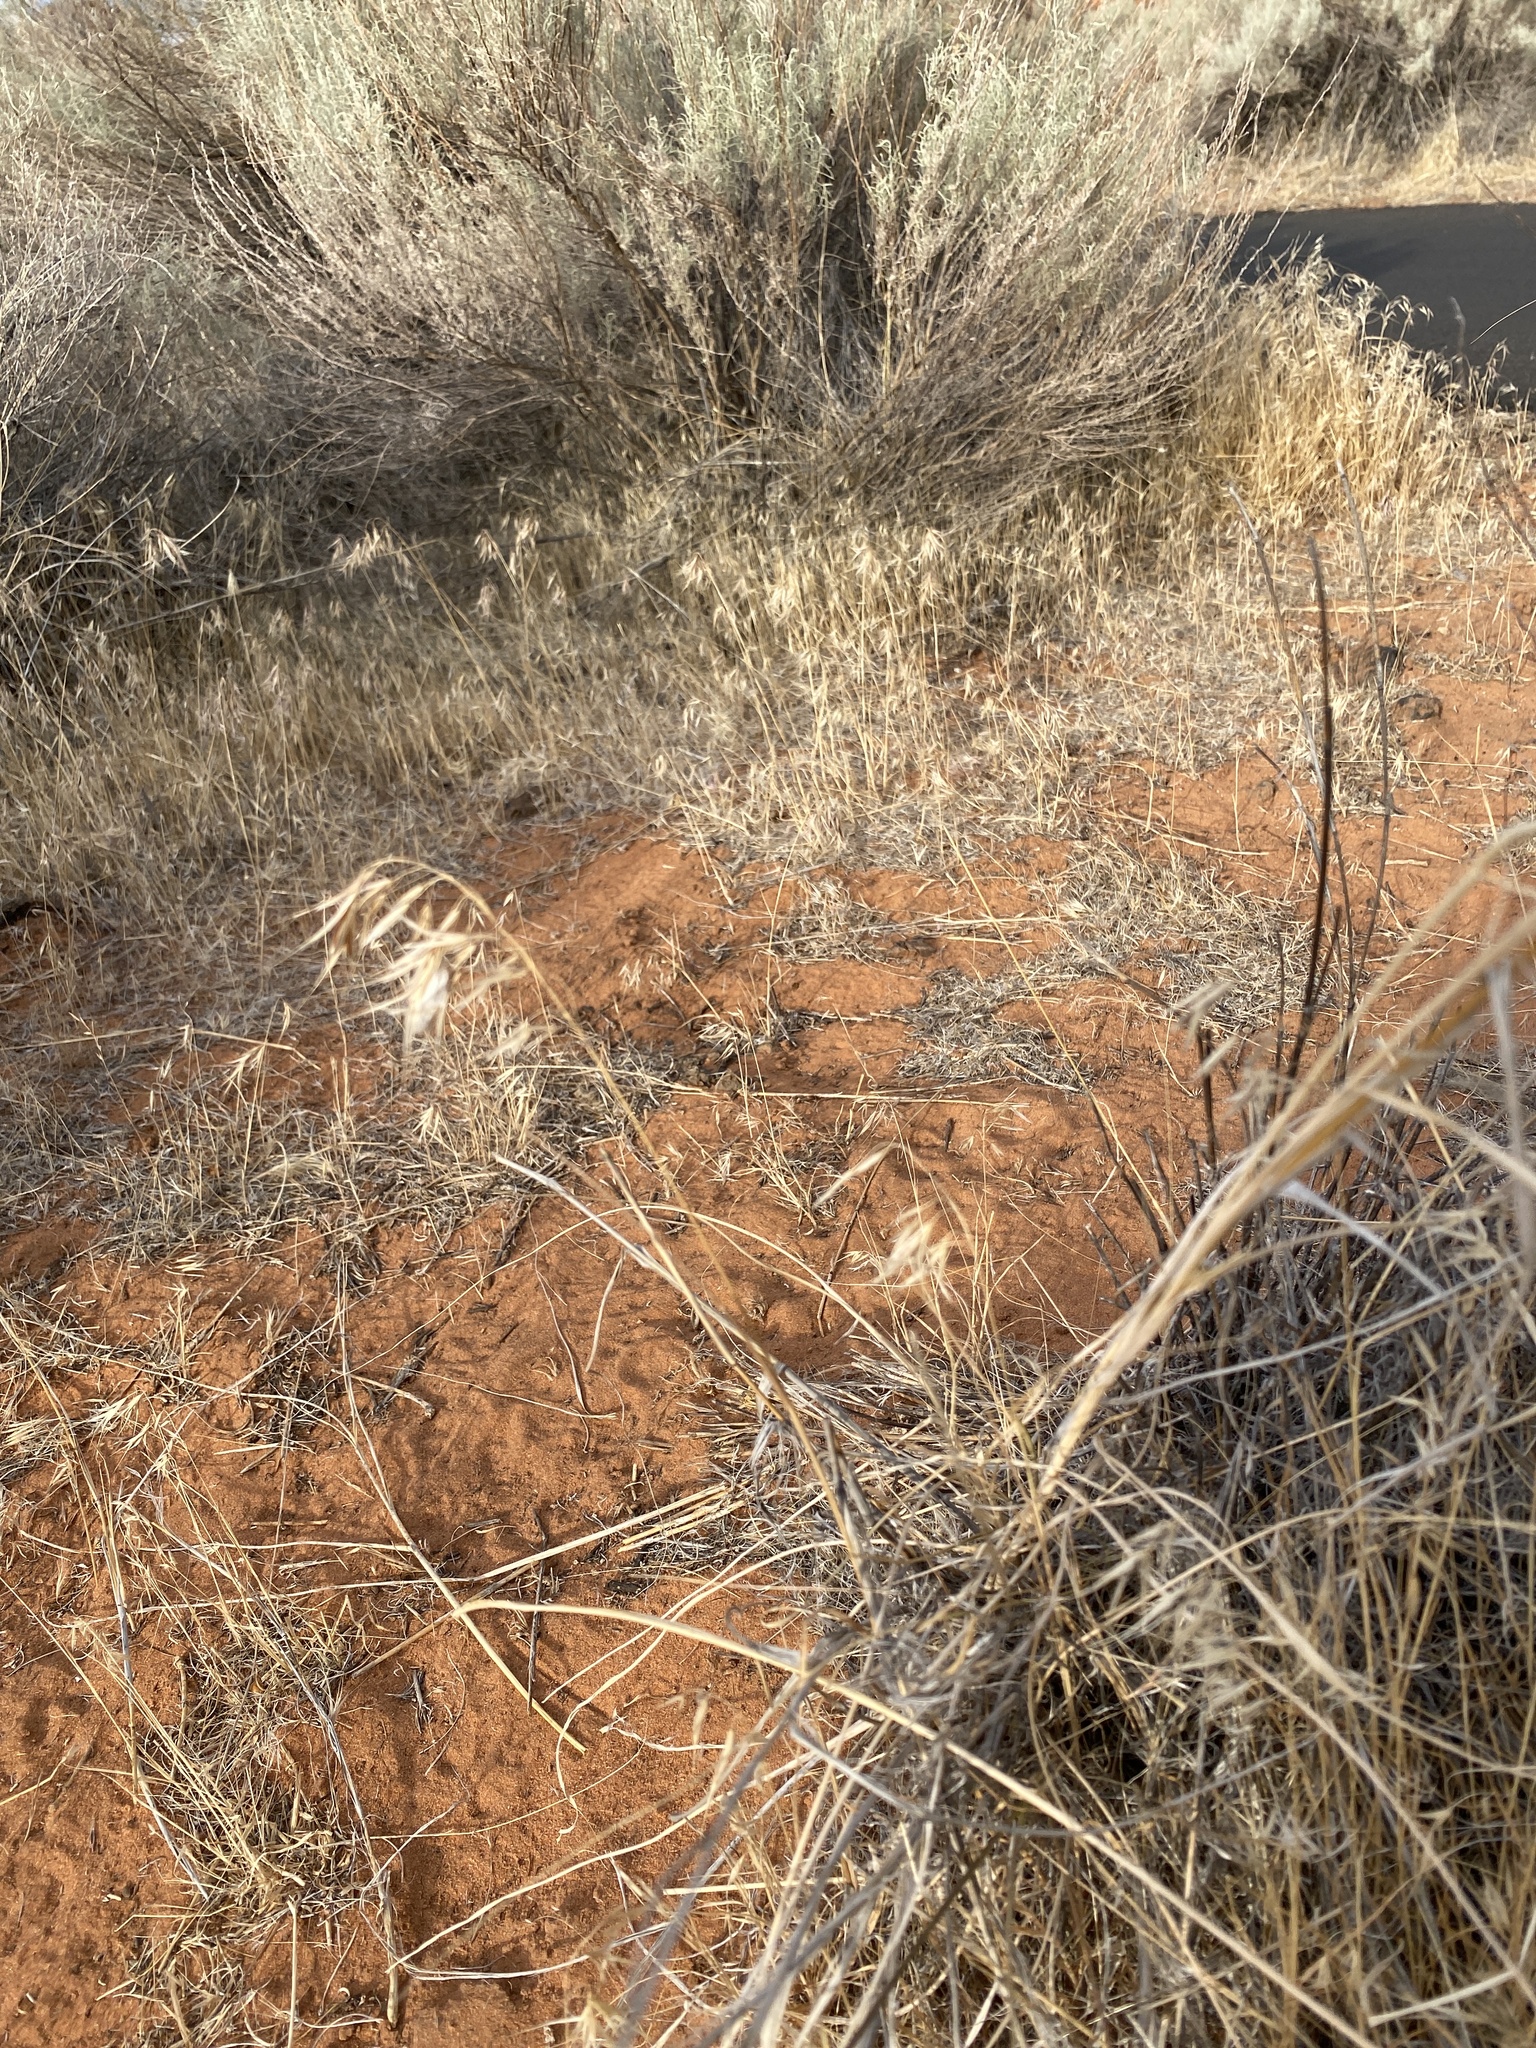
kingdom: Plantae
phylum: Tracheophyta
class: Liliopsida
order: Poales
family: Poaceae
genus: Bromus
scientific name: Bromus tectorum
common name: Cheatgrass
